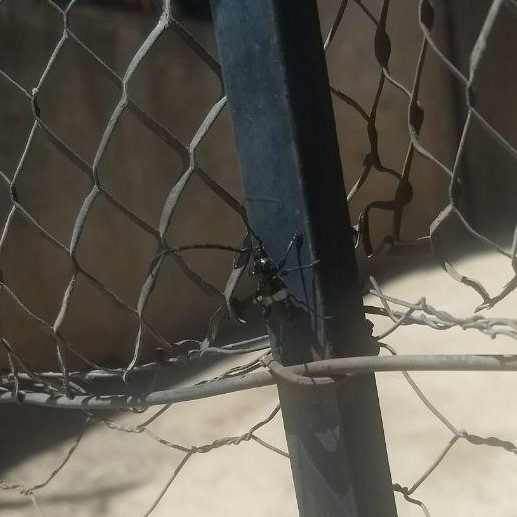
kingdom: Animalia
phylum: Arthropoda
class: Insecta
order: Coleoptera
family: Cerambycidae
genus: Lissonotus
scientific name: Lissonotus flavocinctus
